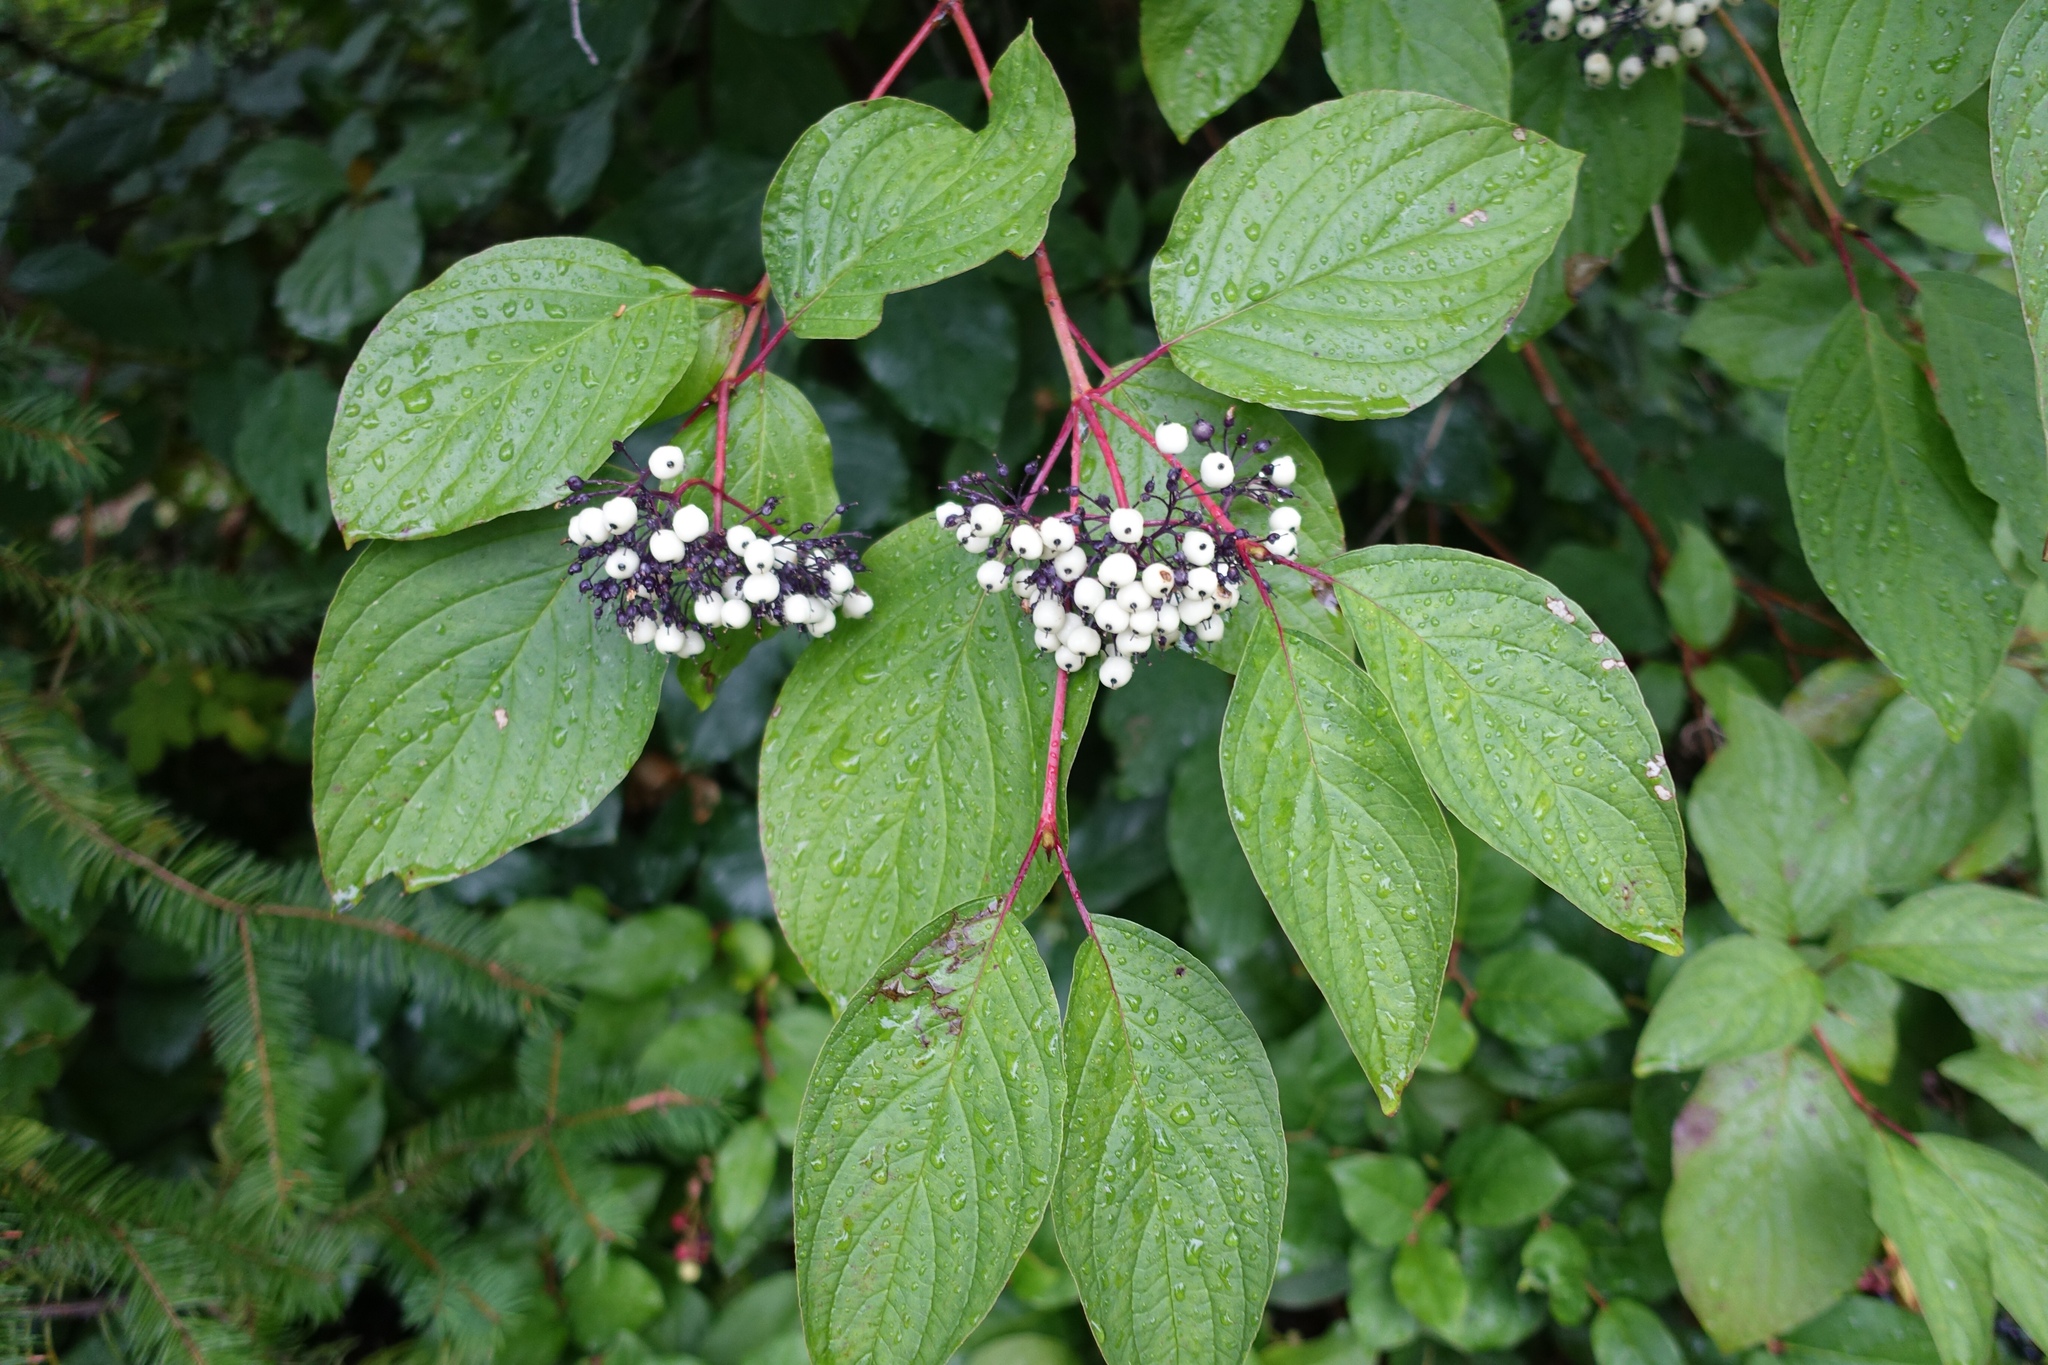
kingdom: Plantae
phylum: Tracheophyta
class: Magnoliopsida
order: Cornales
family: Cornaceae
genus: Cornus
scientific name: Cornus sericea
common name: Red-osier dogwood
